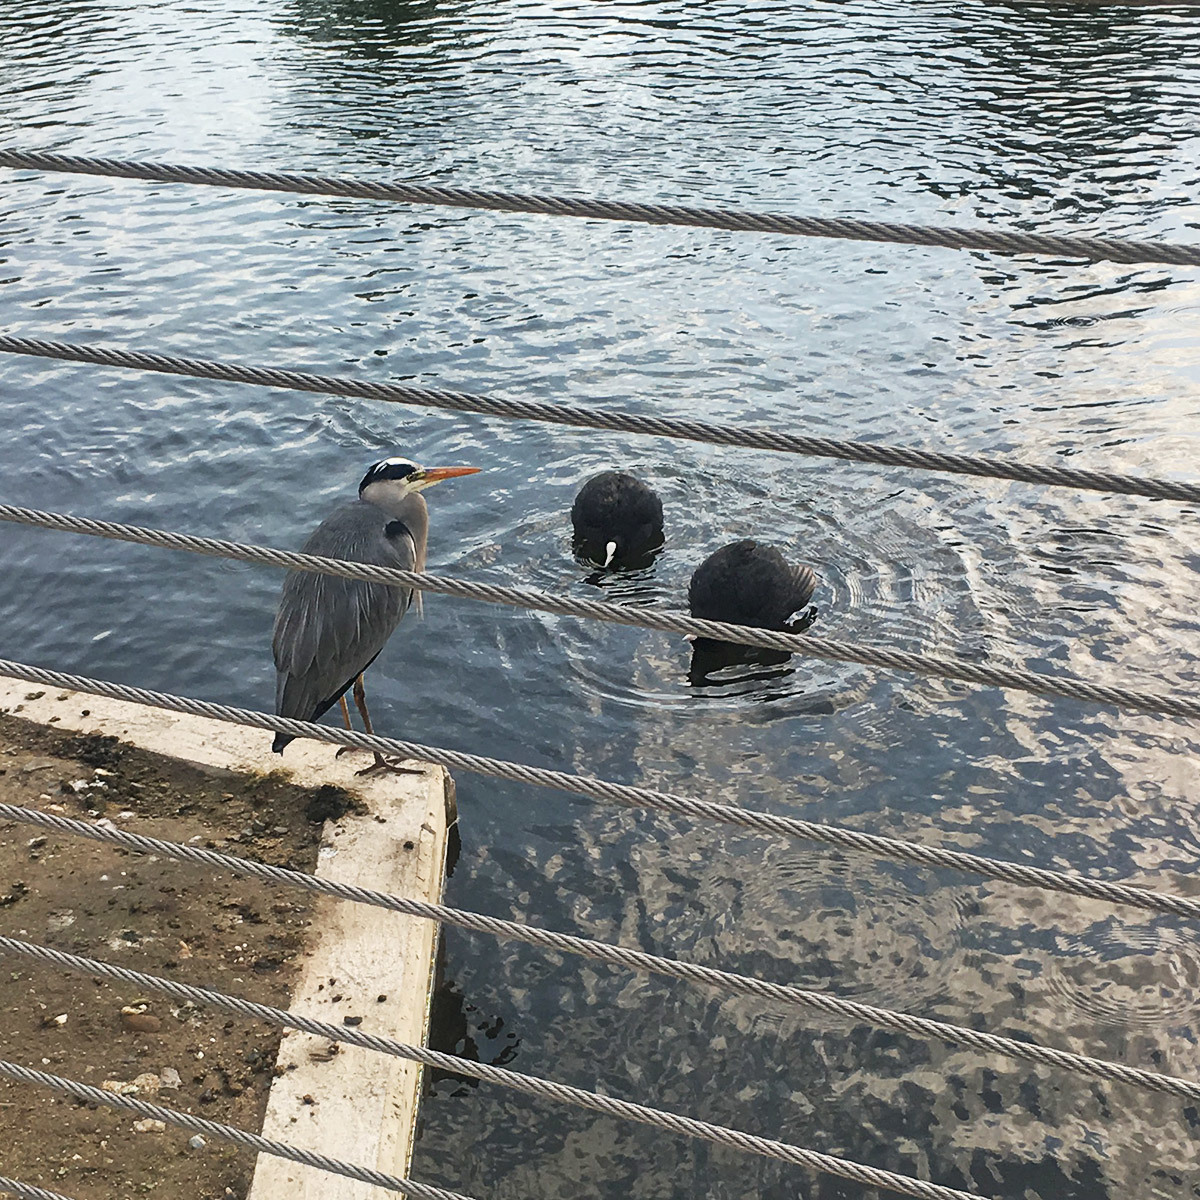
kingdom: Animalia
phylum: Chordata
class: Aves
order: Gruiformes
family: Rallidae
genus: Fulica
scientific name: Fulica atra
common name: Eurasian coot
